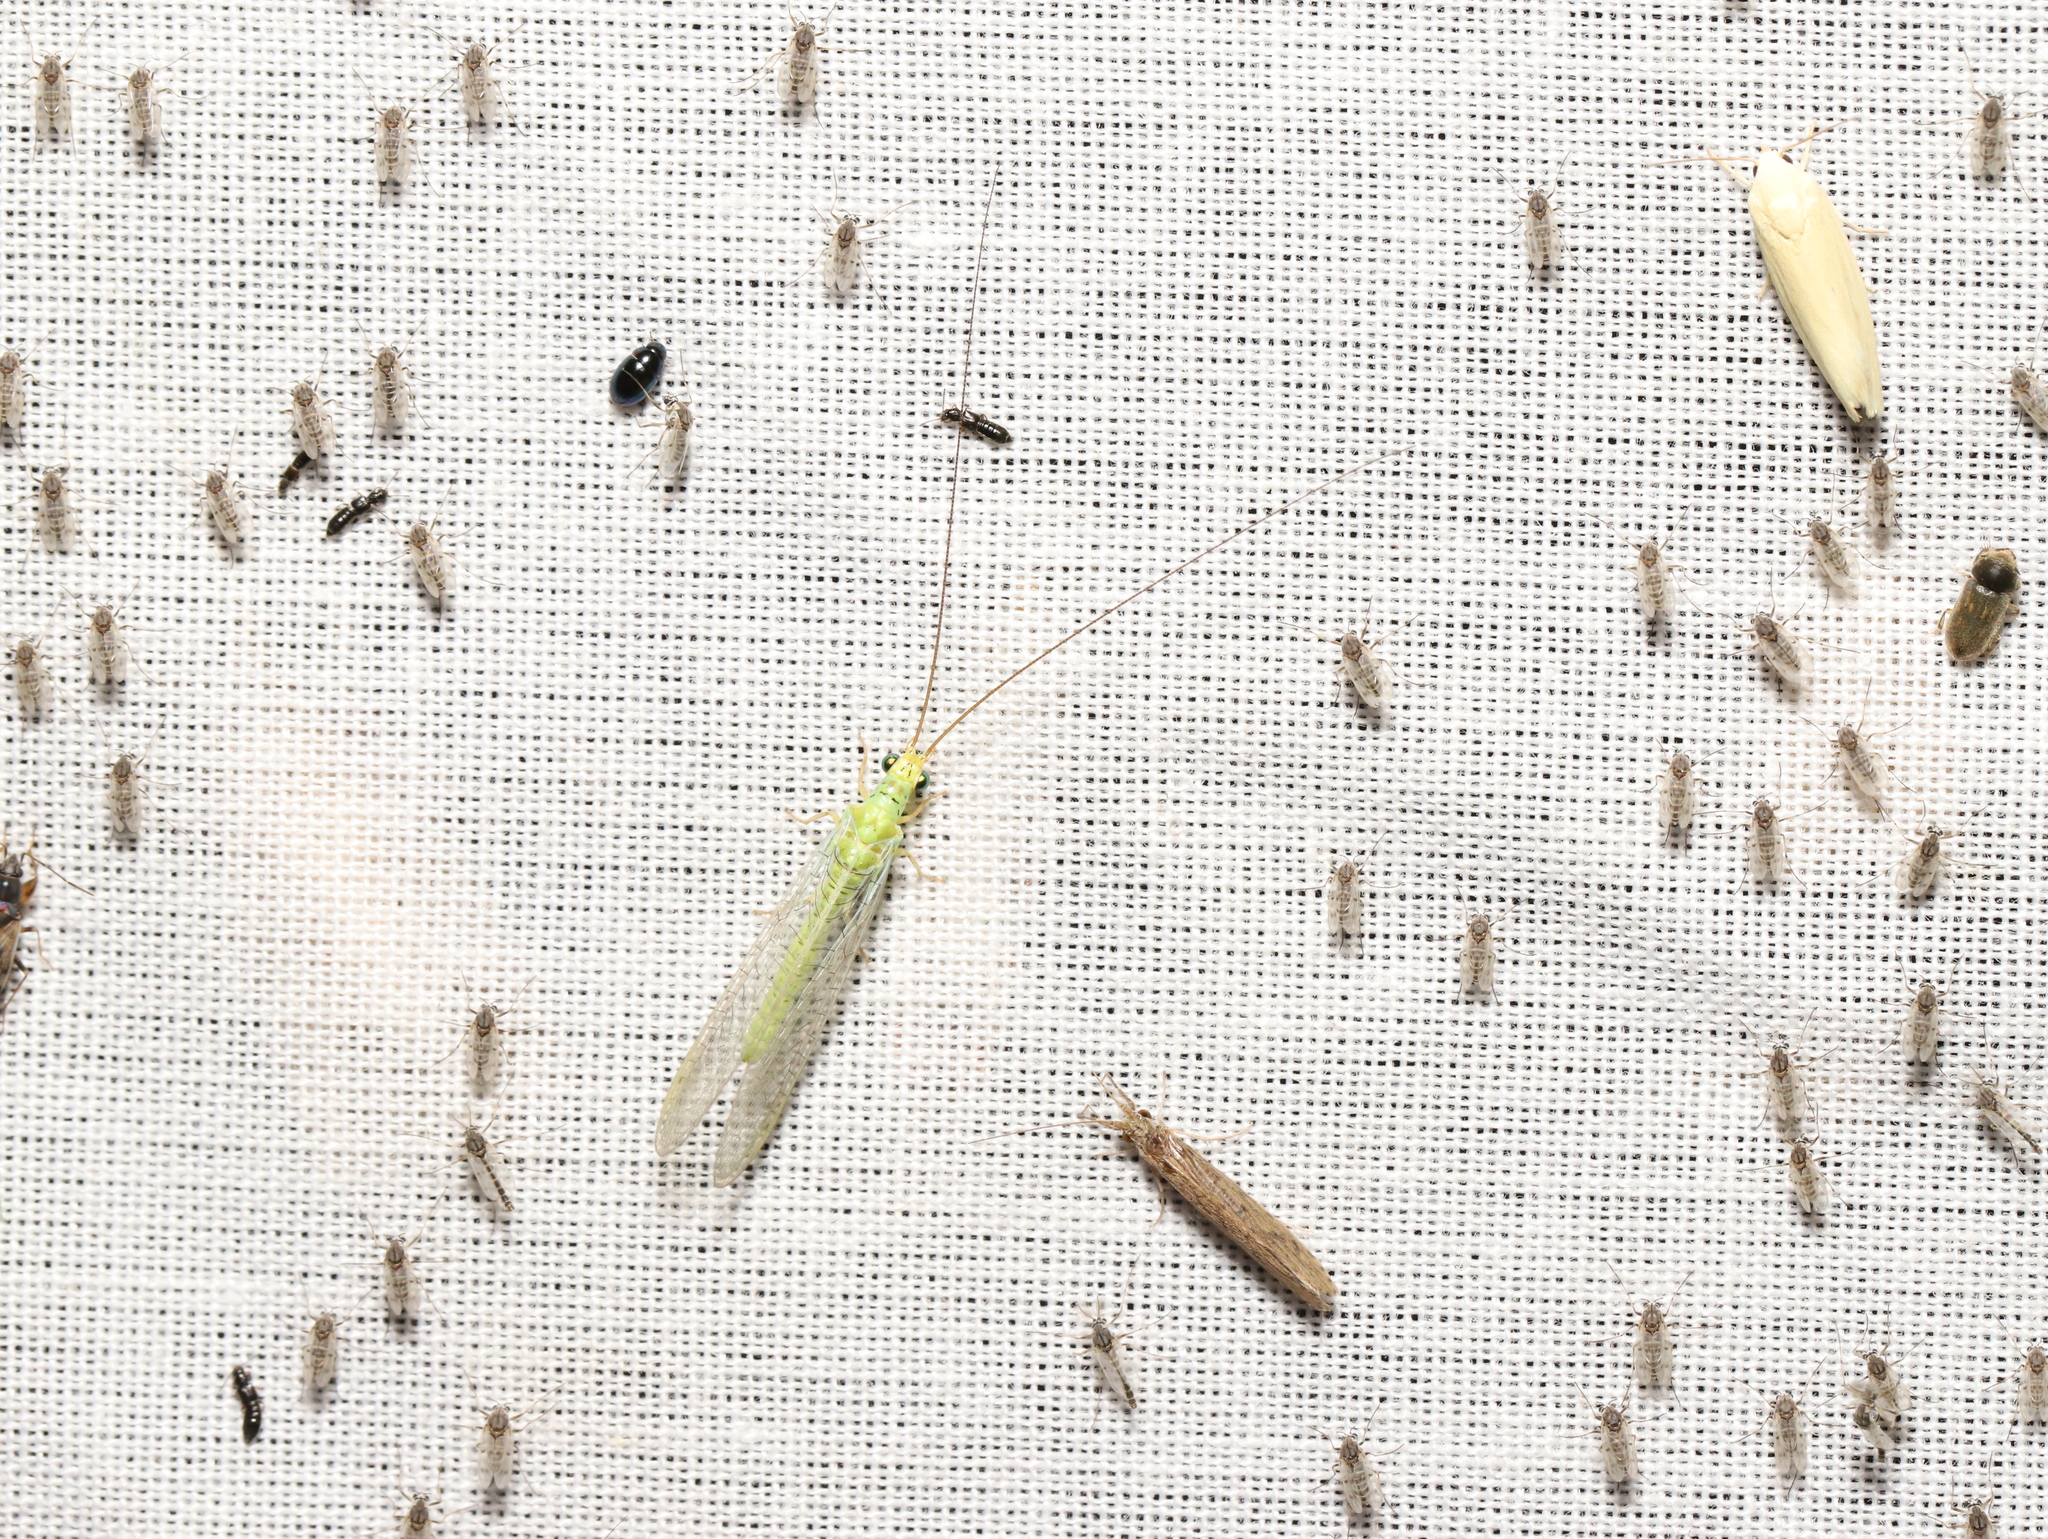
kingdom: Animalia
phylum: Arthropoda
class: Insecta
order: Neuroptera
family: Chrysopidae
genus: Plesiochrysa
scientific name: Plesiochrysa ramburi
